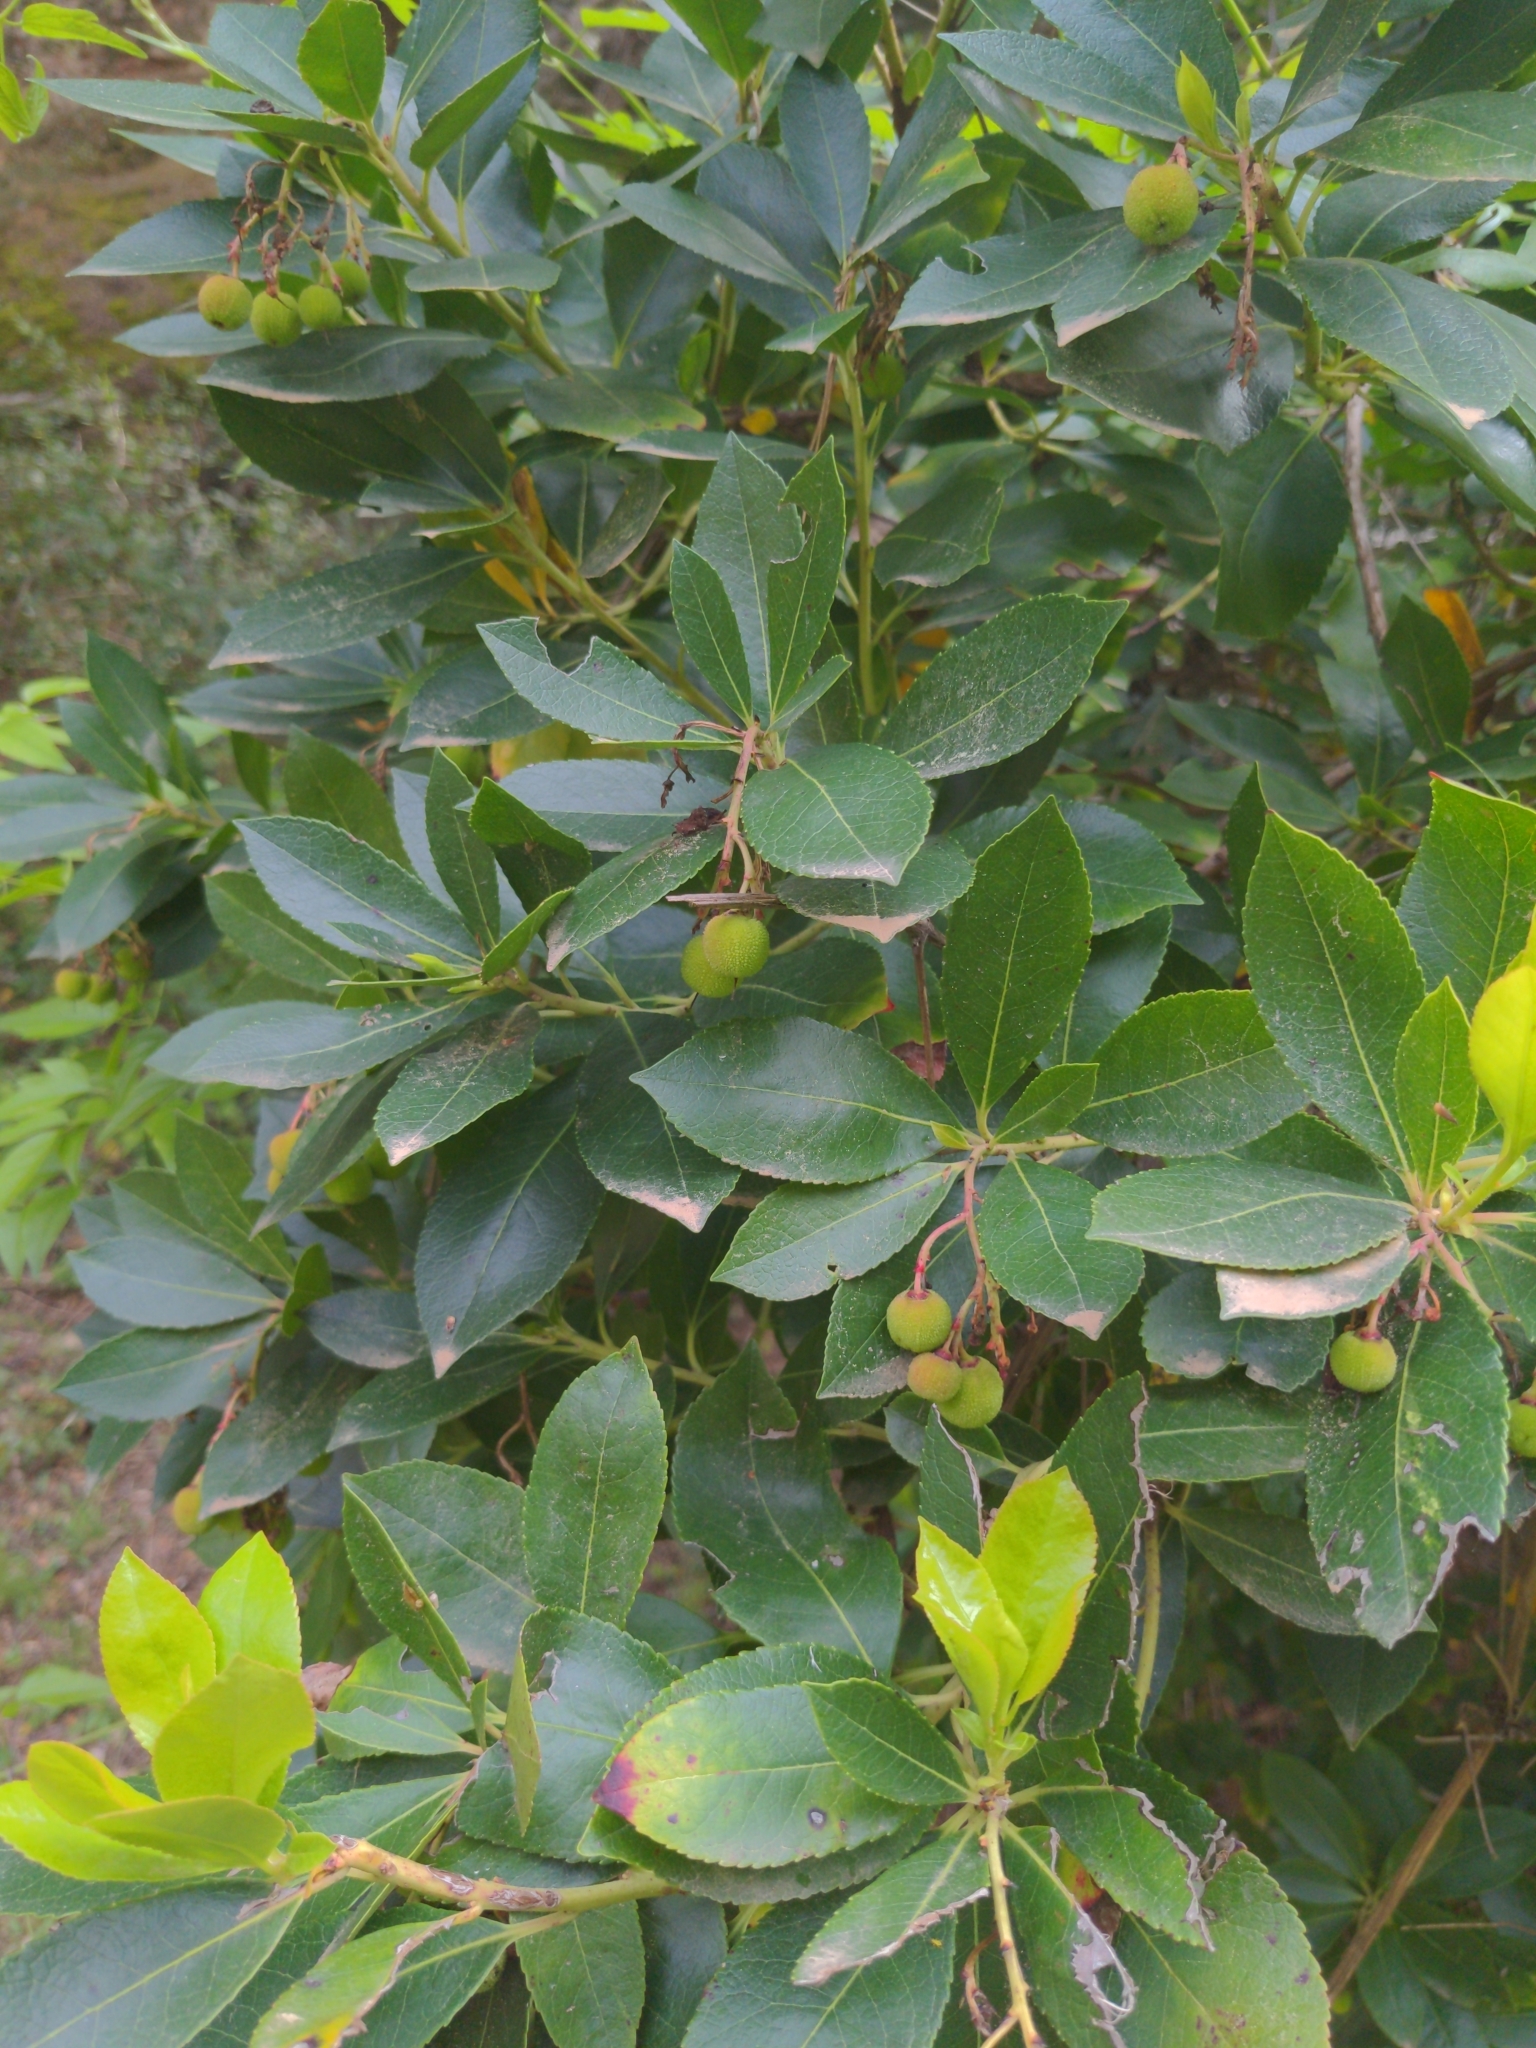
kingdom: Plantae
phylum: Tracheophyta
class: Magnoliopsida
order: Ericales
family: Ericaceae
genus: Arbutus
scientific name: Arbutus unedo
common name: Strawberry-tree
